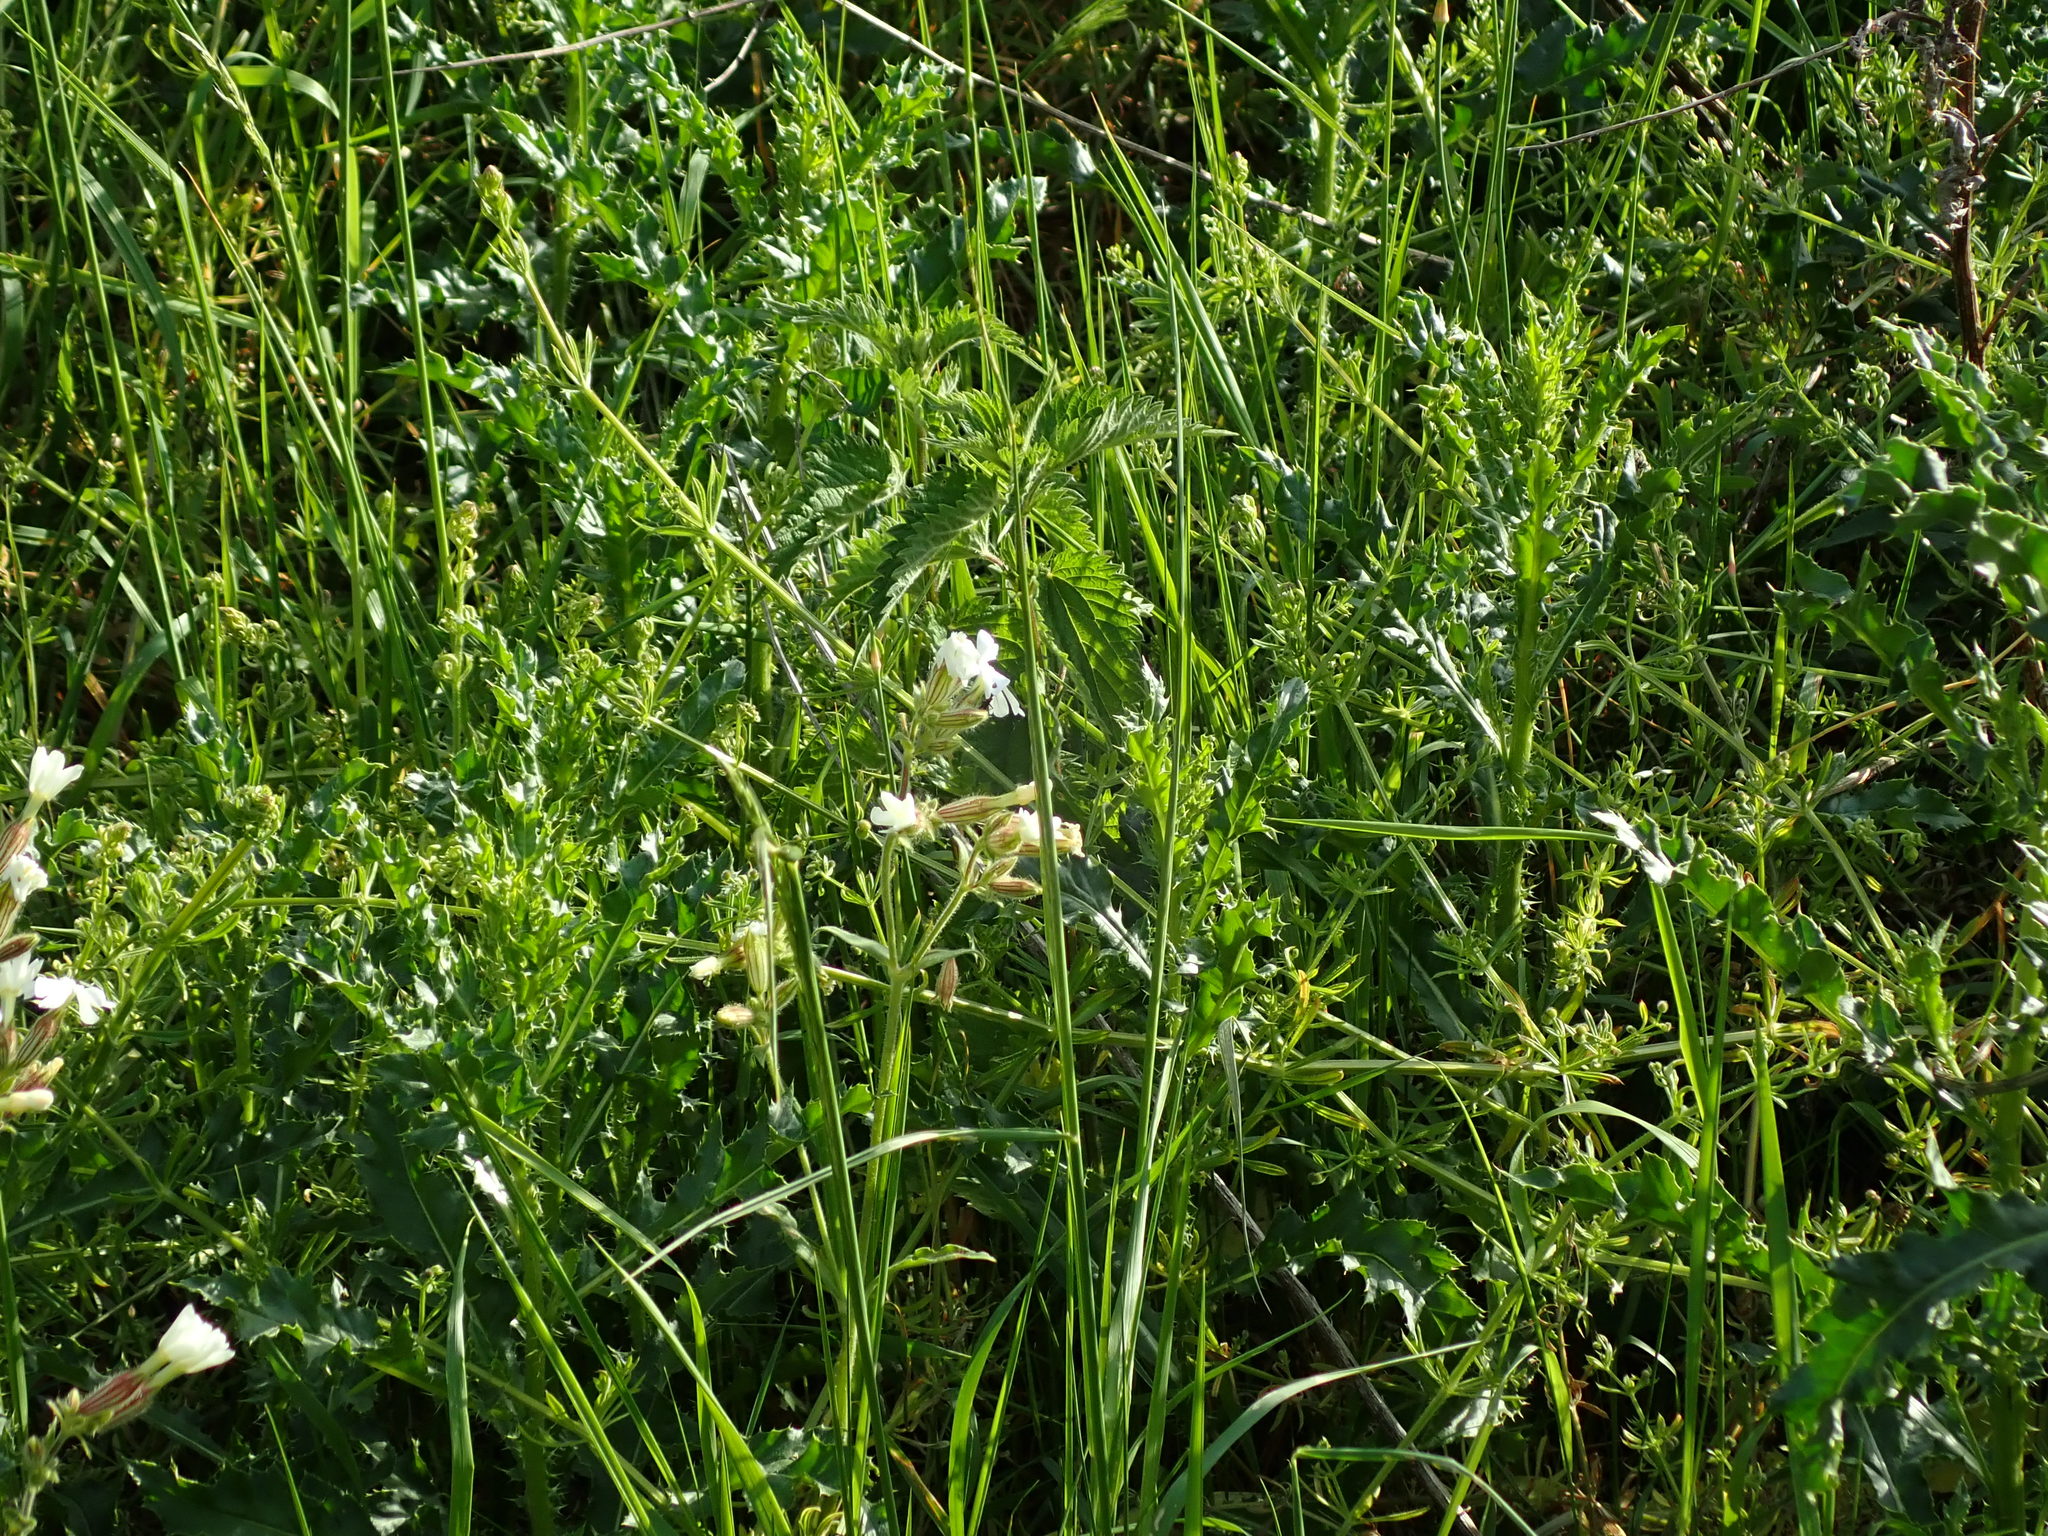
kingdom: Plantae
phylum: Tracheophyta
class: Magnoliopsida
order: Caryophyllales
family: Caryophyllaceae
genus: Silene
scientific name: Silene latifolia
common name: White campion
